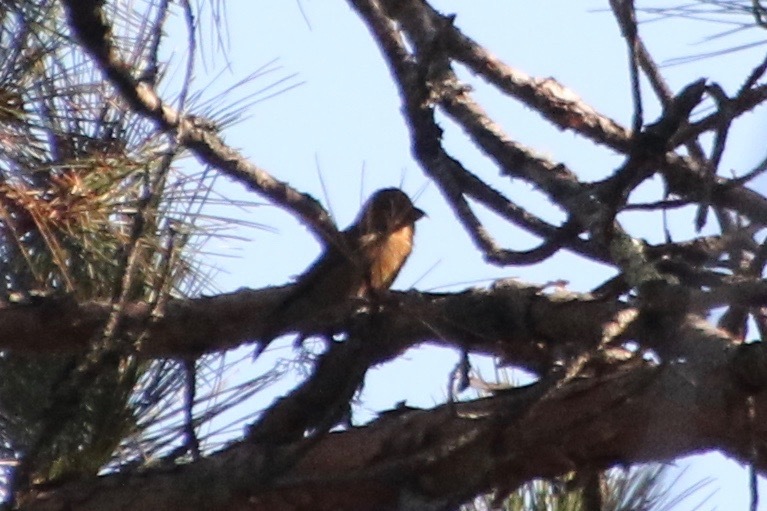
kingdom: Animalia
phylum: Chordata
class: Aves
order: Passeriformes
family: Fringillidae
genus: Loxia
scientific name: Loxia curvirostra
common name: Red crossbill
